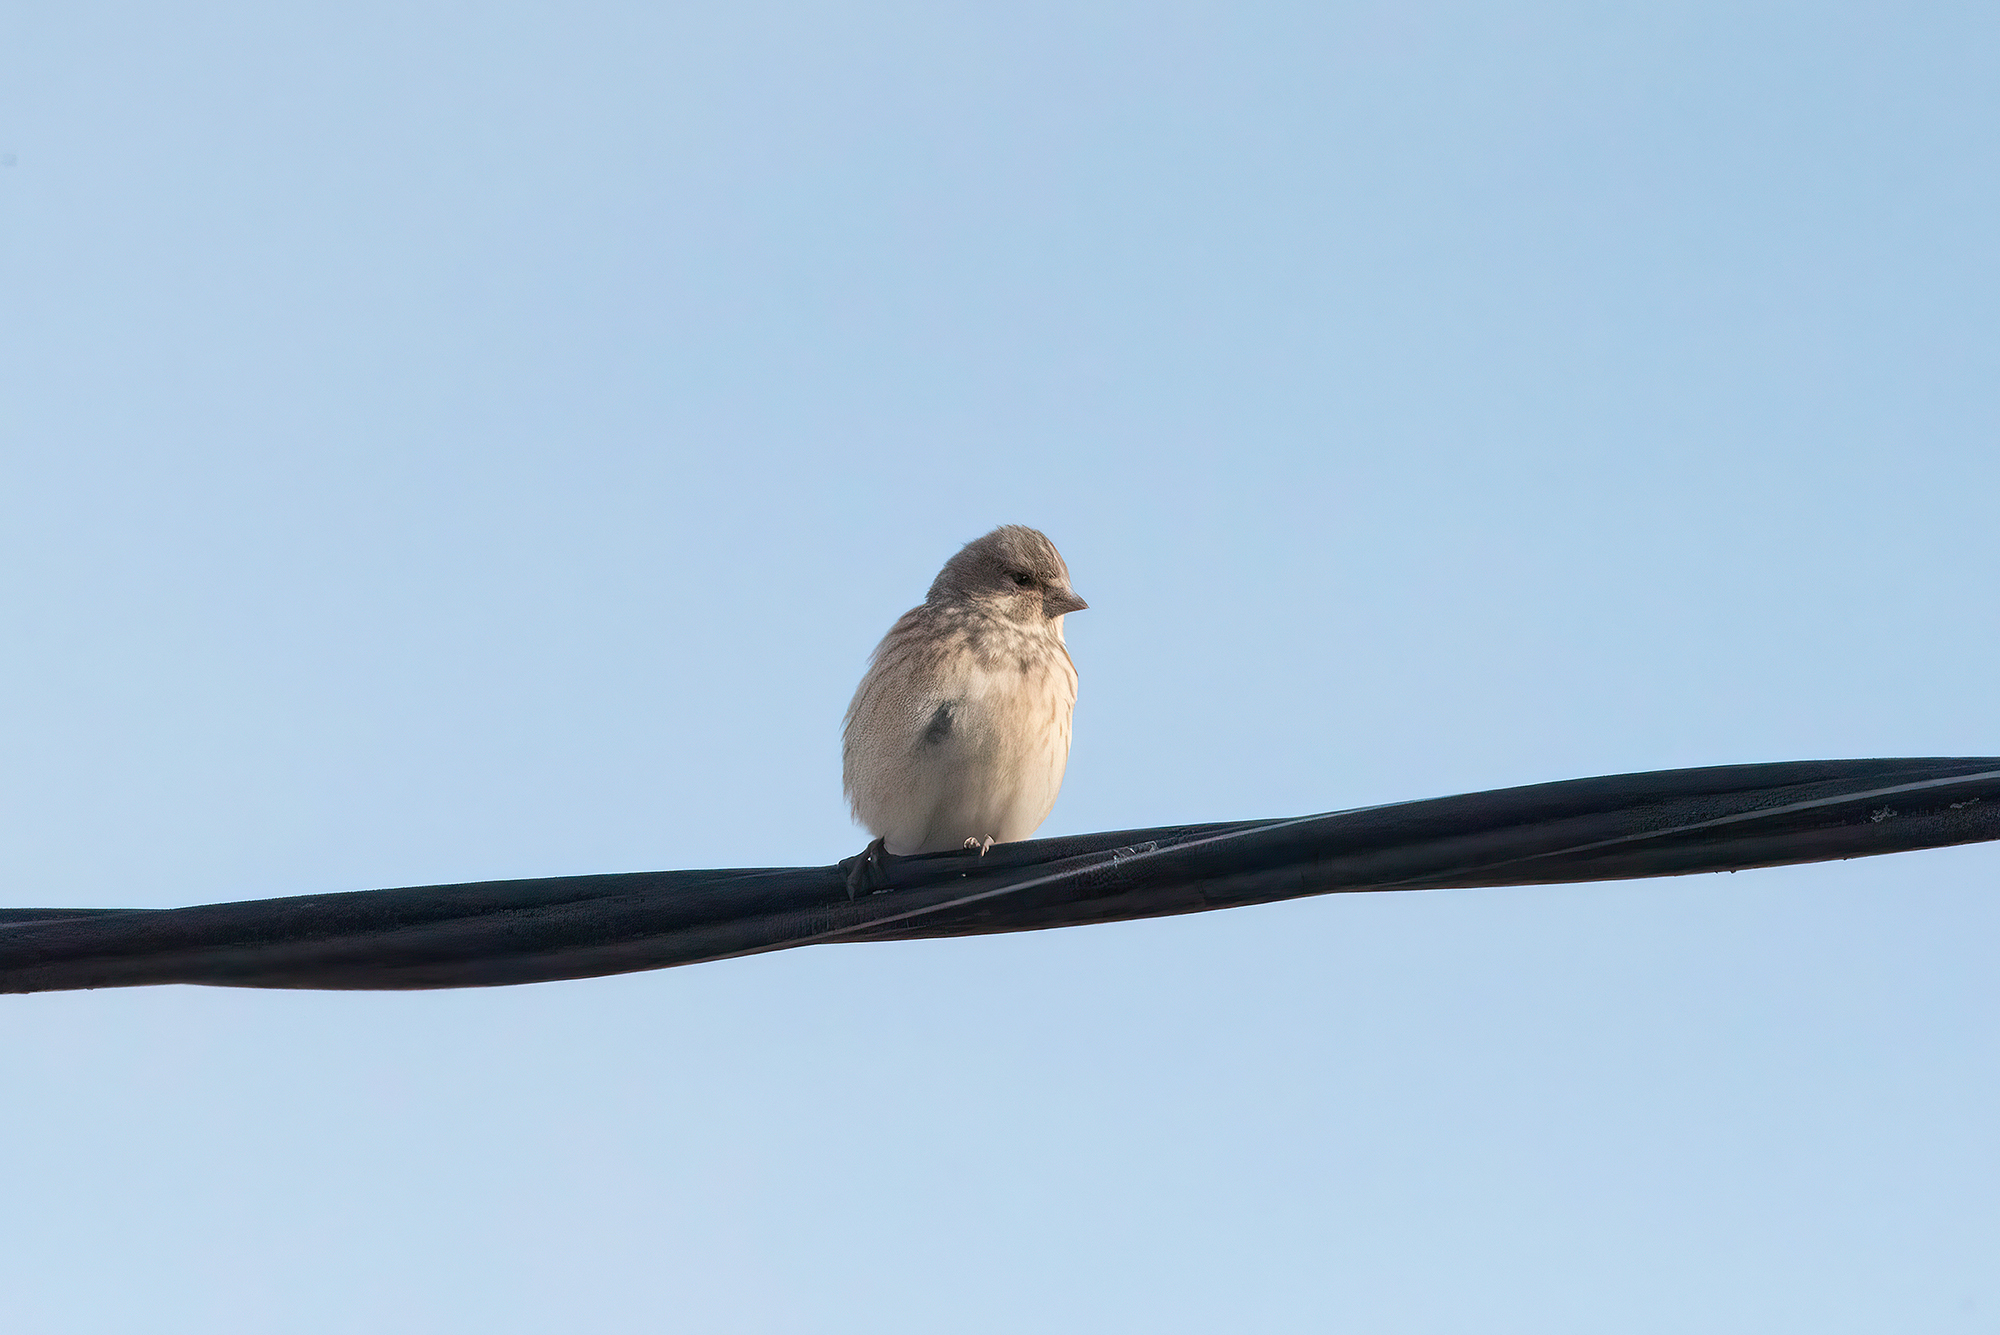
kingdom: Animalia
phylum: Chordata
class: Aves
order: Passeriformes
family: Fringillidae
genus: Linaria
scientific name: Linaria cannabina
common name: Common linnet
